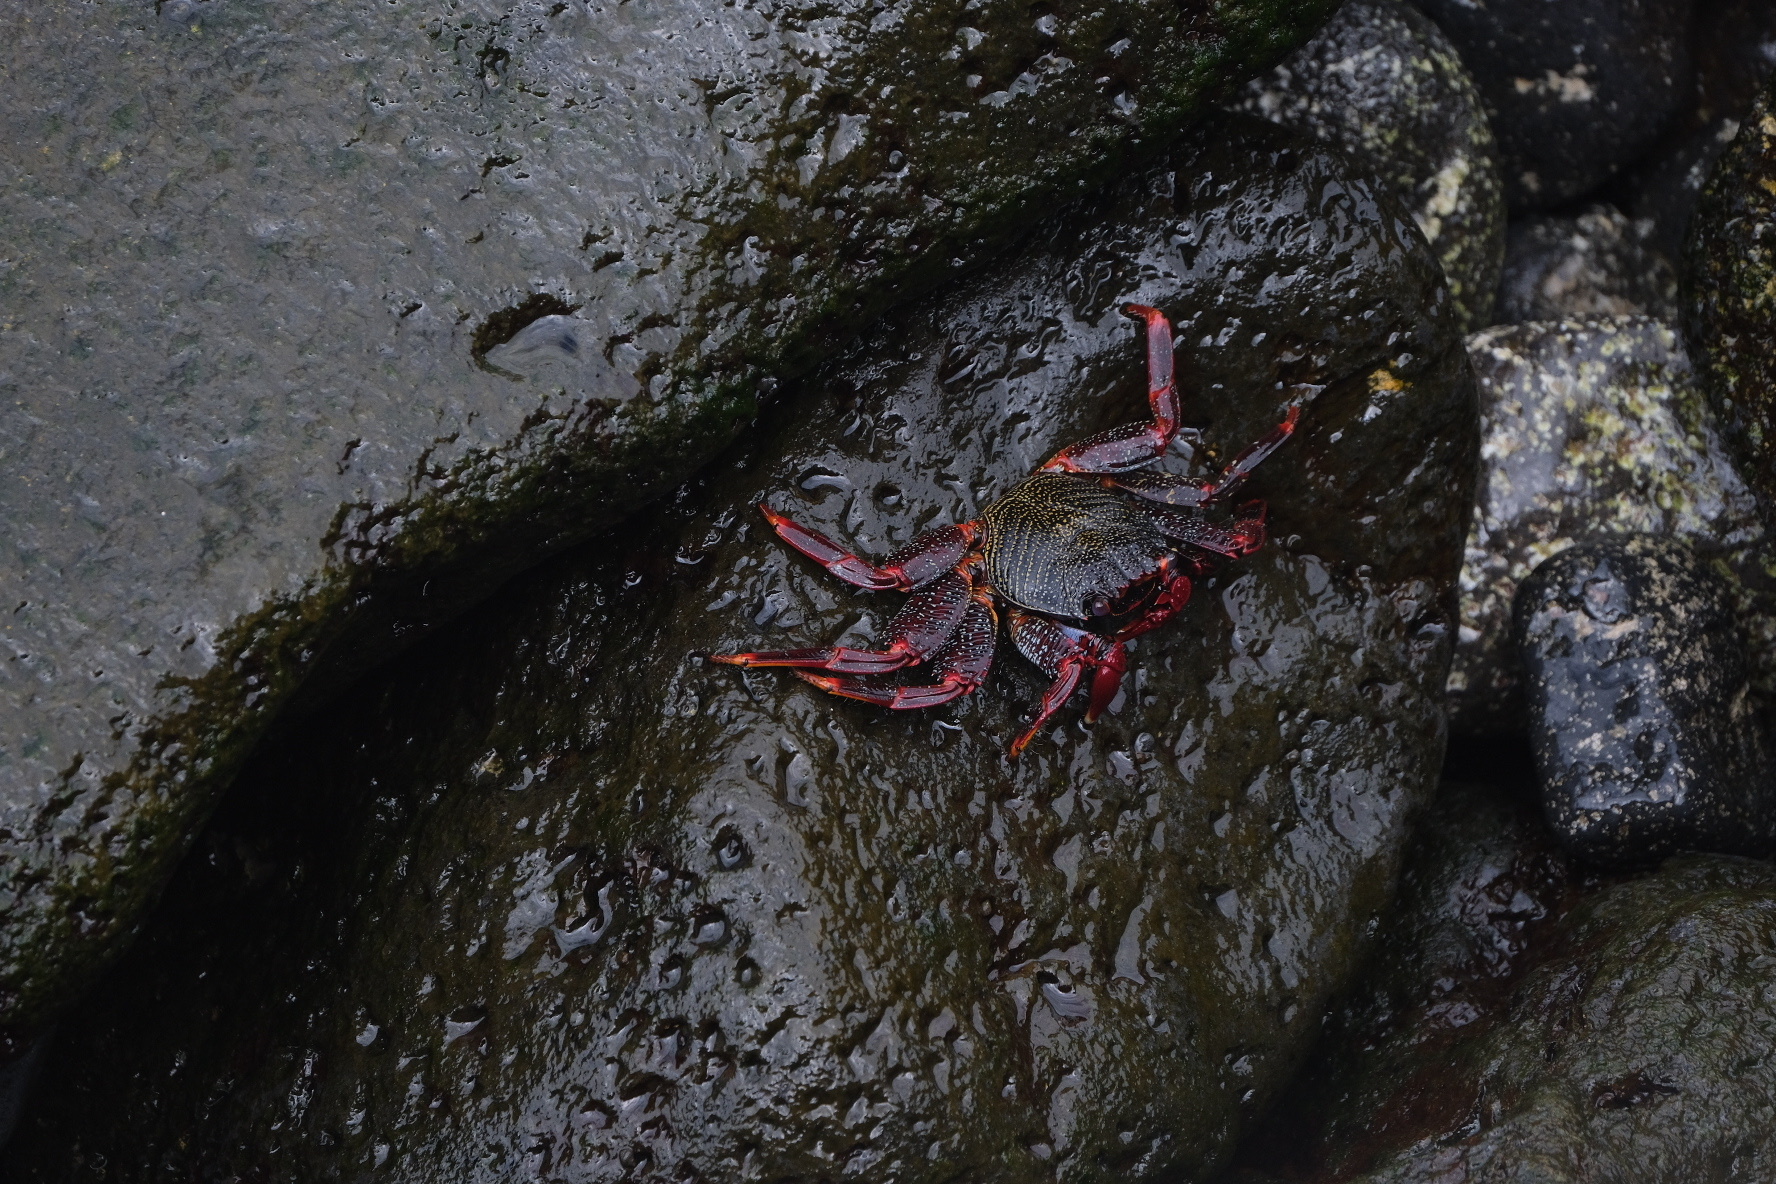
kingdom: Animalia
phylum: Arthropoda
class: Malacostraca
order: Decapoda
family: Grapsidae
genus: Grapsus
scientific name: Grapsus adscensionis
